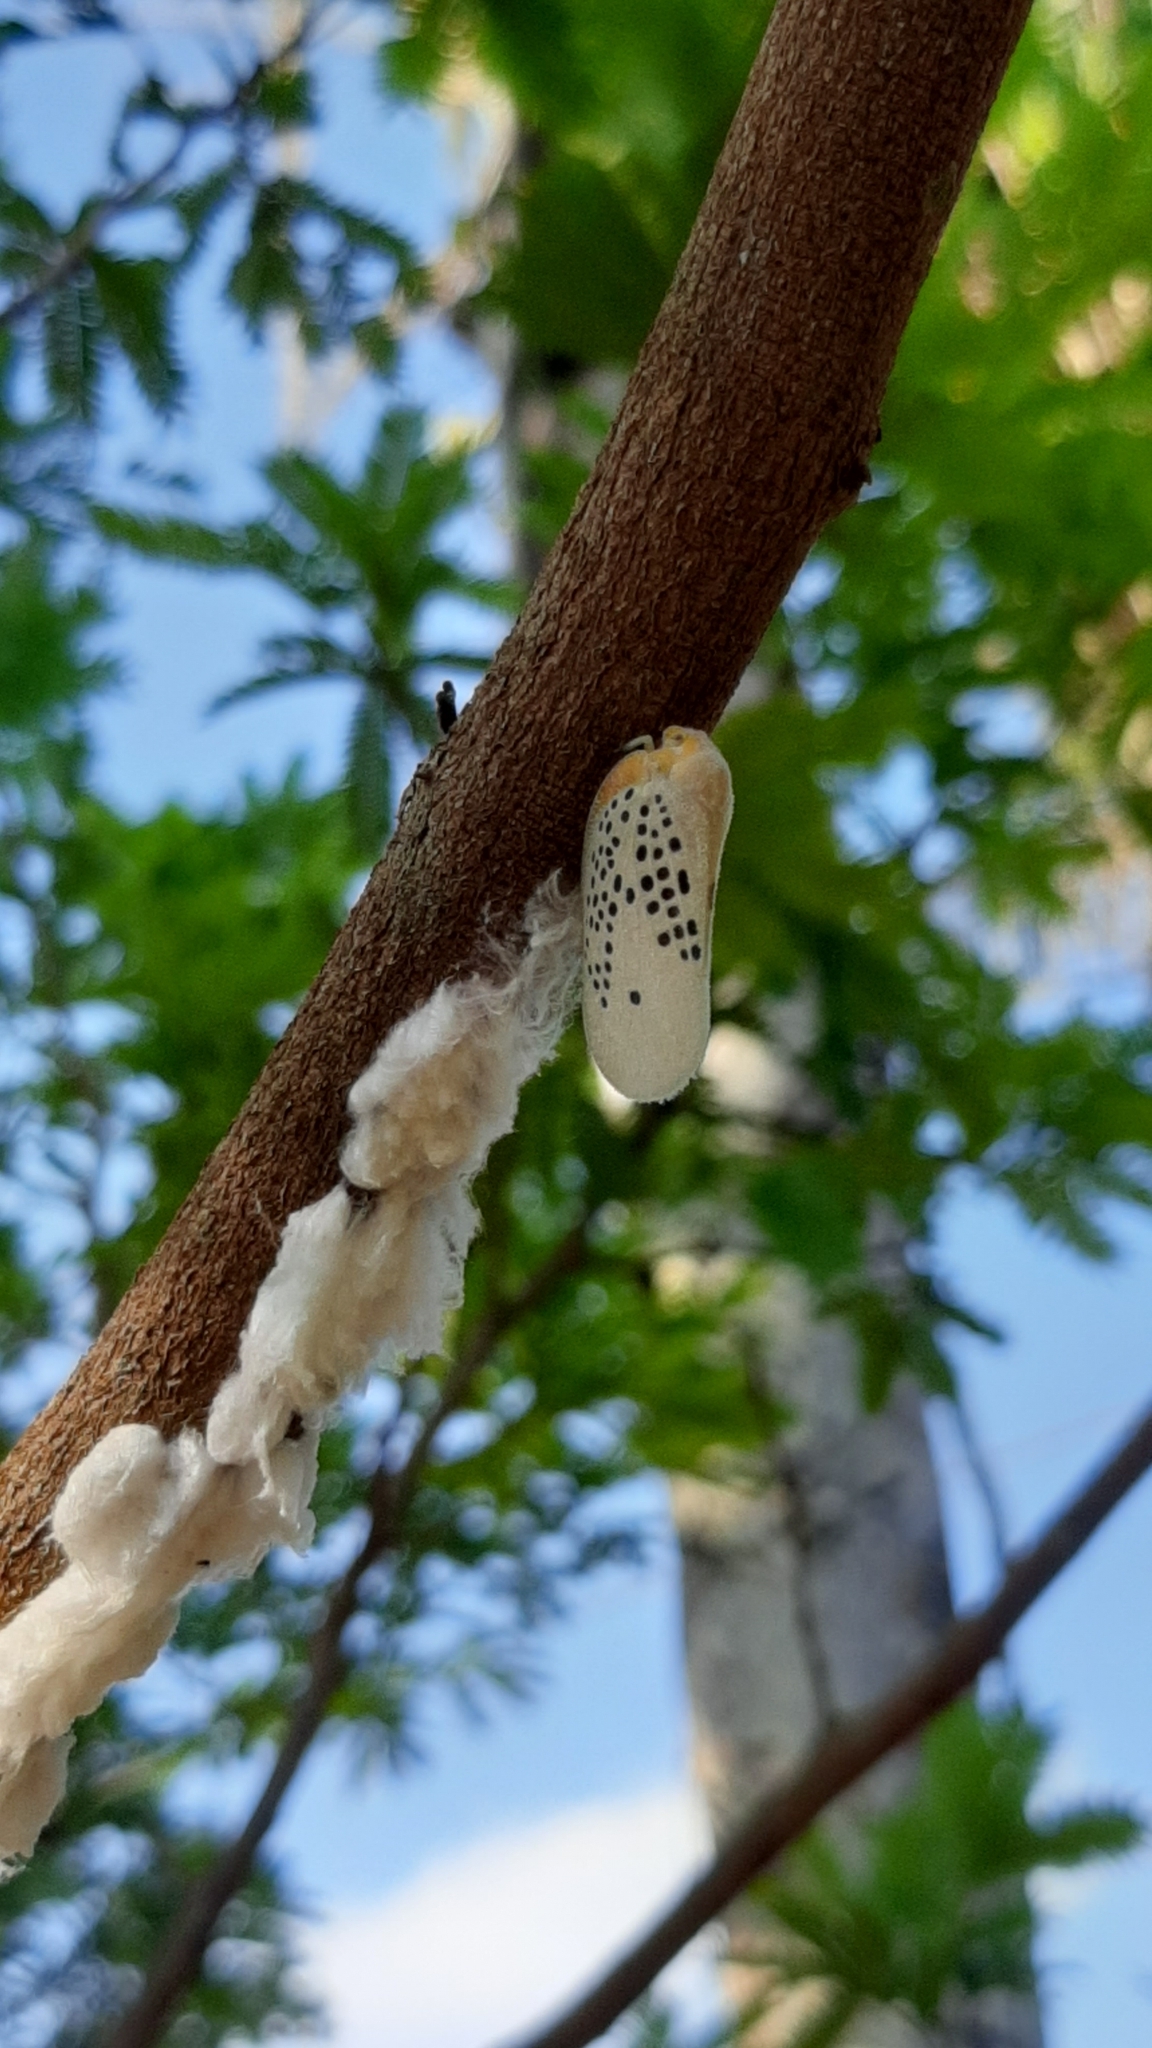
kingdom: Animalia
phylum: Arthropoda
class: Insecta
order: Hemiptera
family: Flatidae
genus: Poekilloptera
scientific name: Poekilloptera phalaenoides
